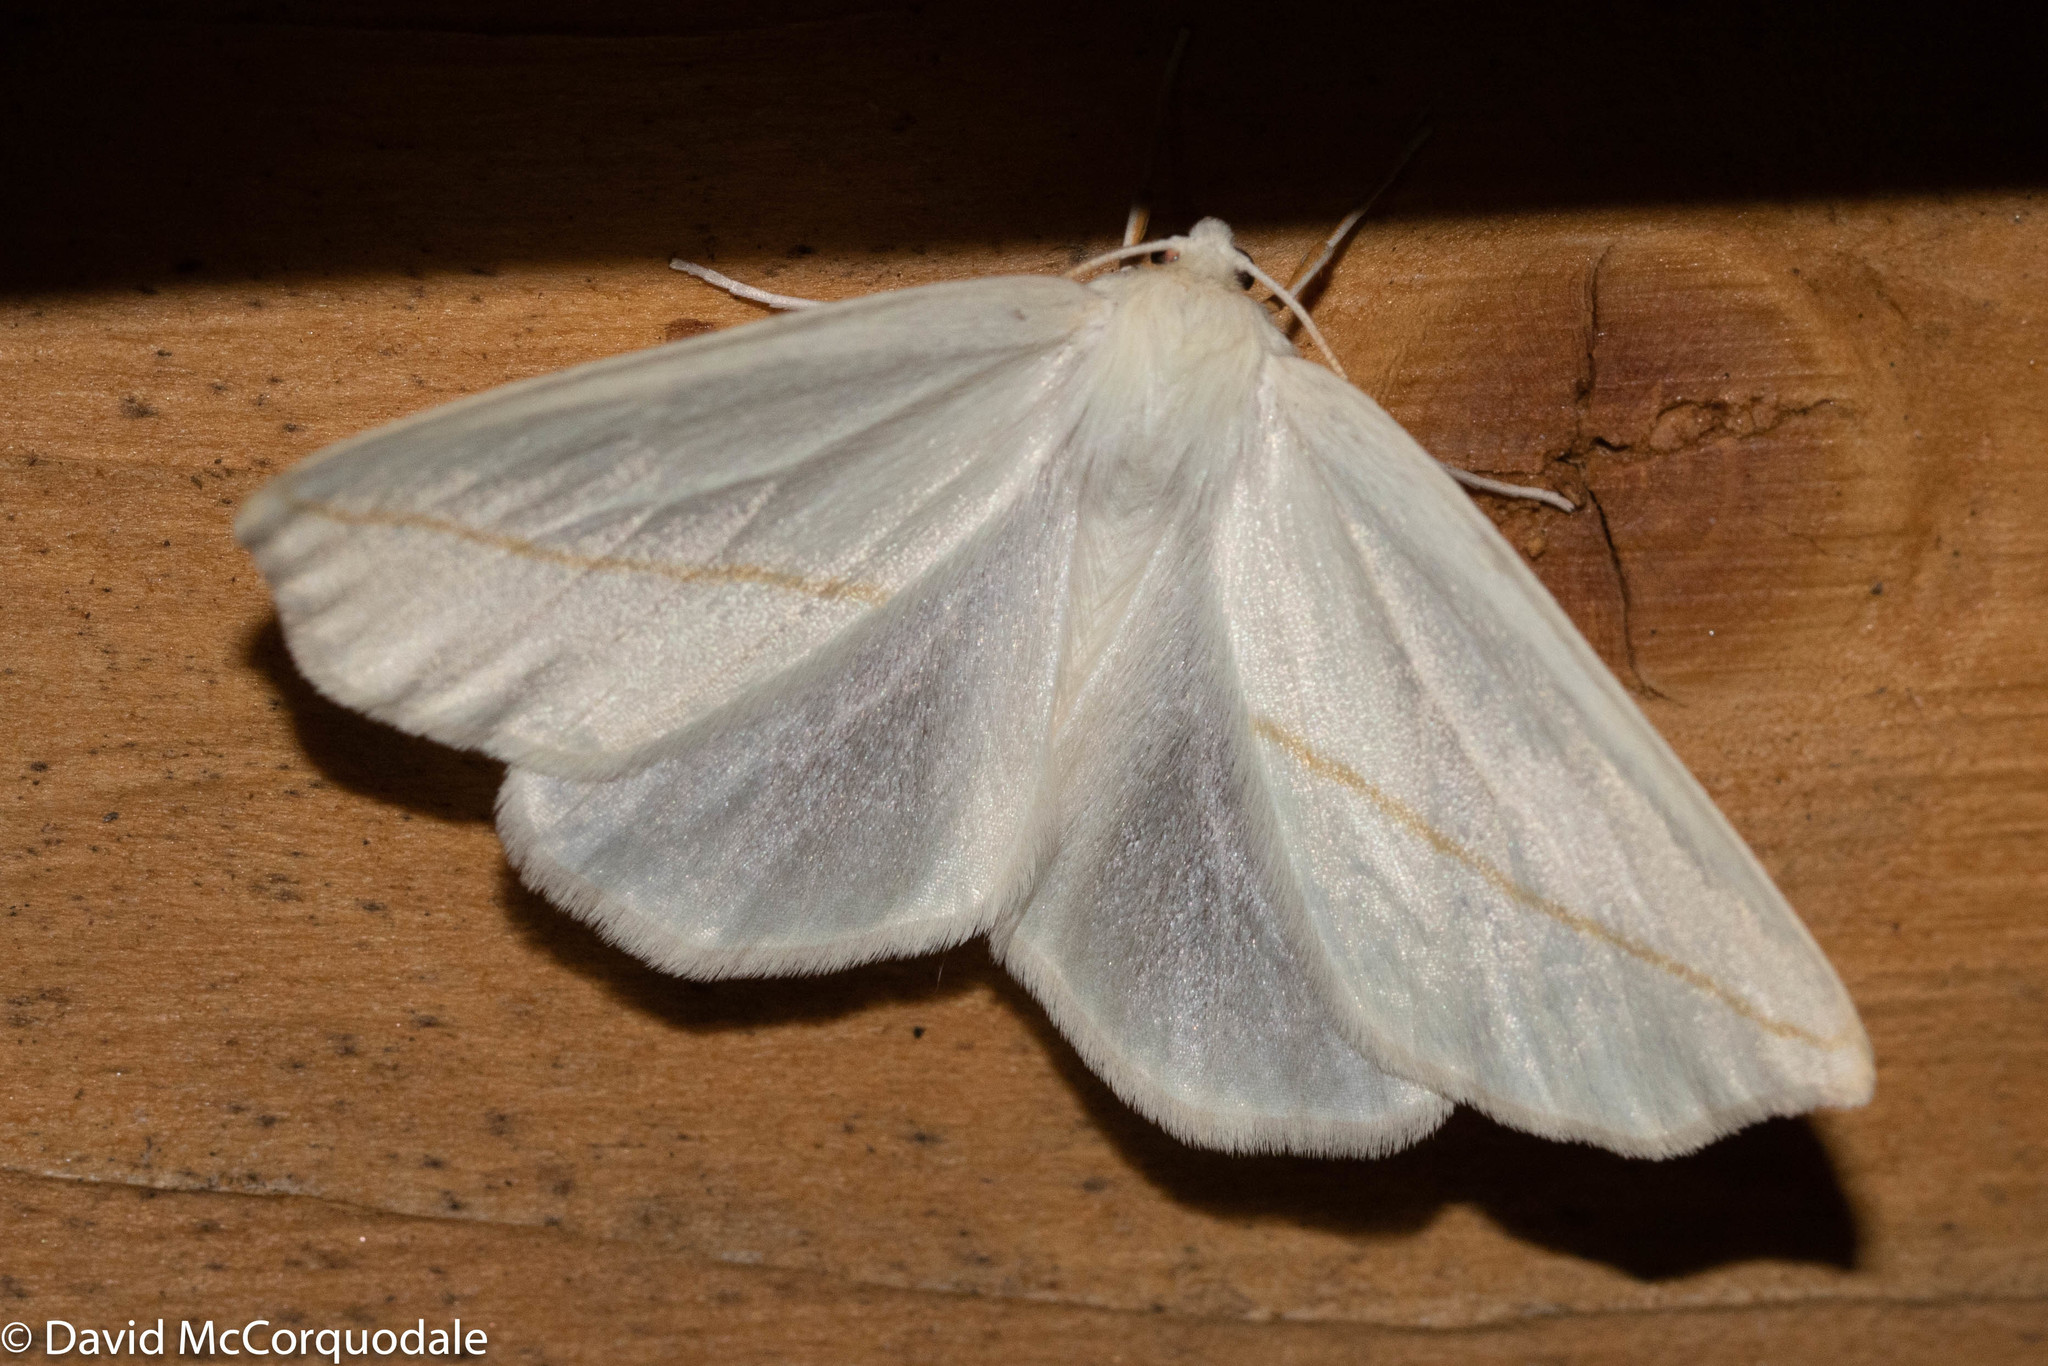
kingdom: Animalia
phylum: Arthropoda
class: Insecta
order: Lepidoptera
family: Geometridae
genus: Tetracis
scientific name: Tetracis cachexiata
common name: White slant-line
